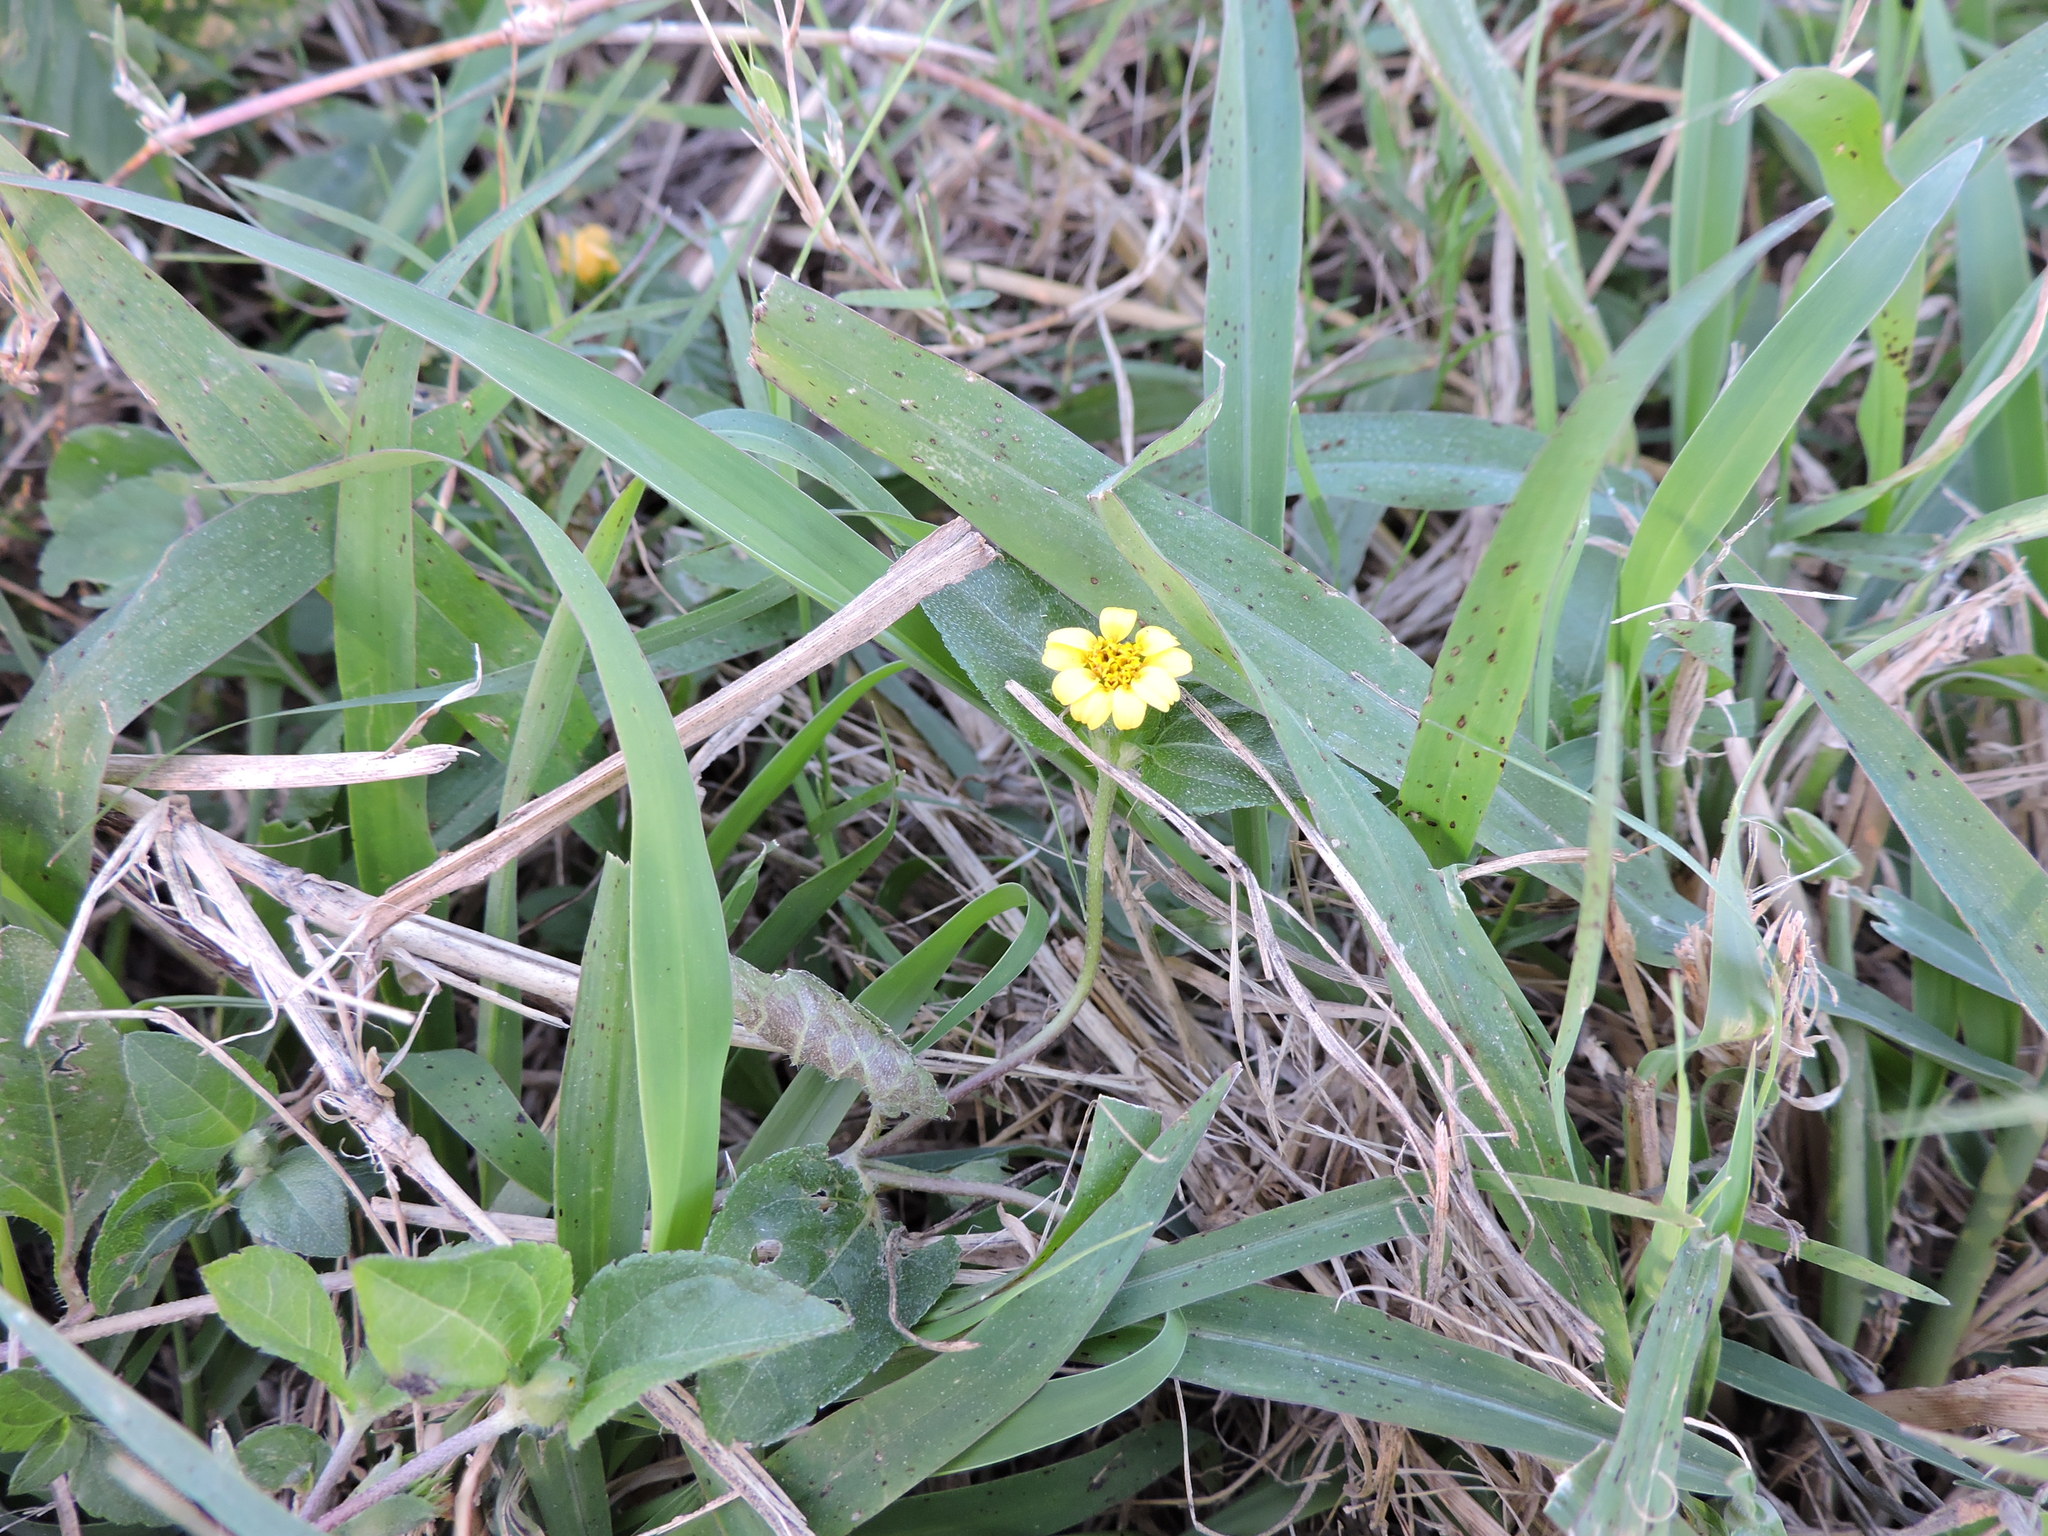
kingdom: Plantae
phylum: Tracheophyta
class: Magnoliopsida
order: Asterales
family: Asteraceae
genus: Calyptocarpus
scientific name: Calyptocarpus vialis
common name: Straggler daisy
